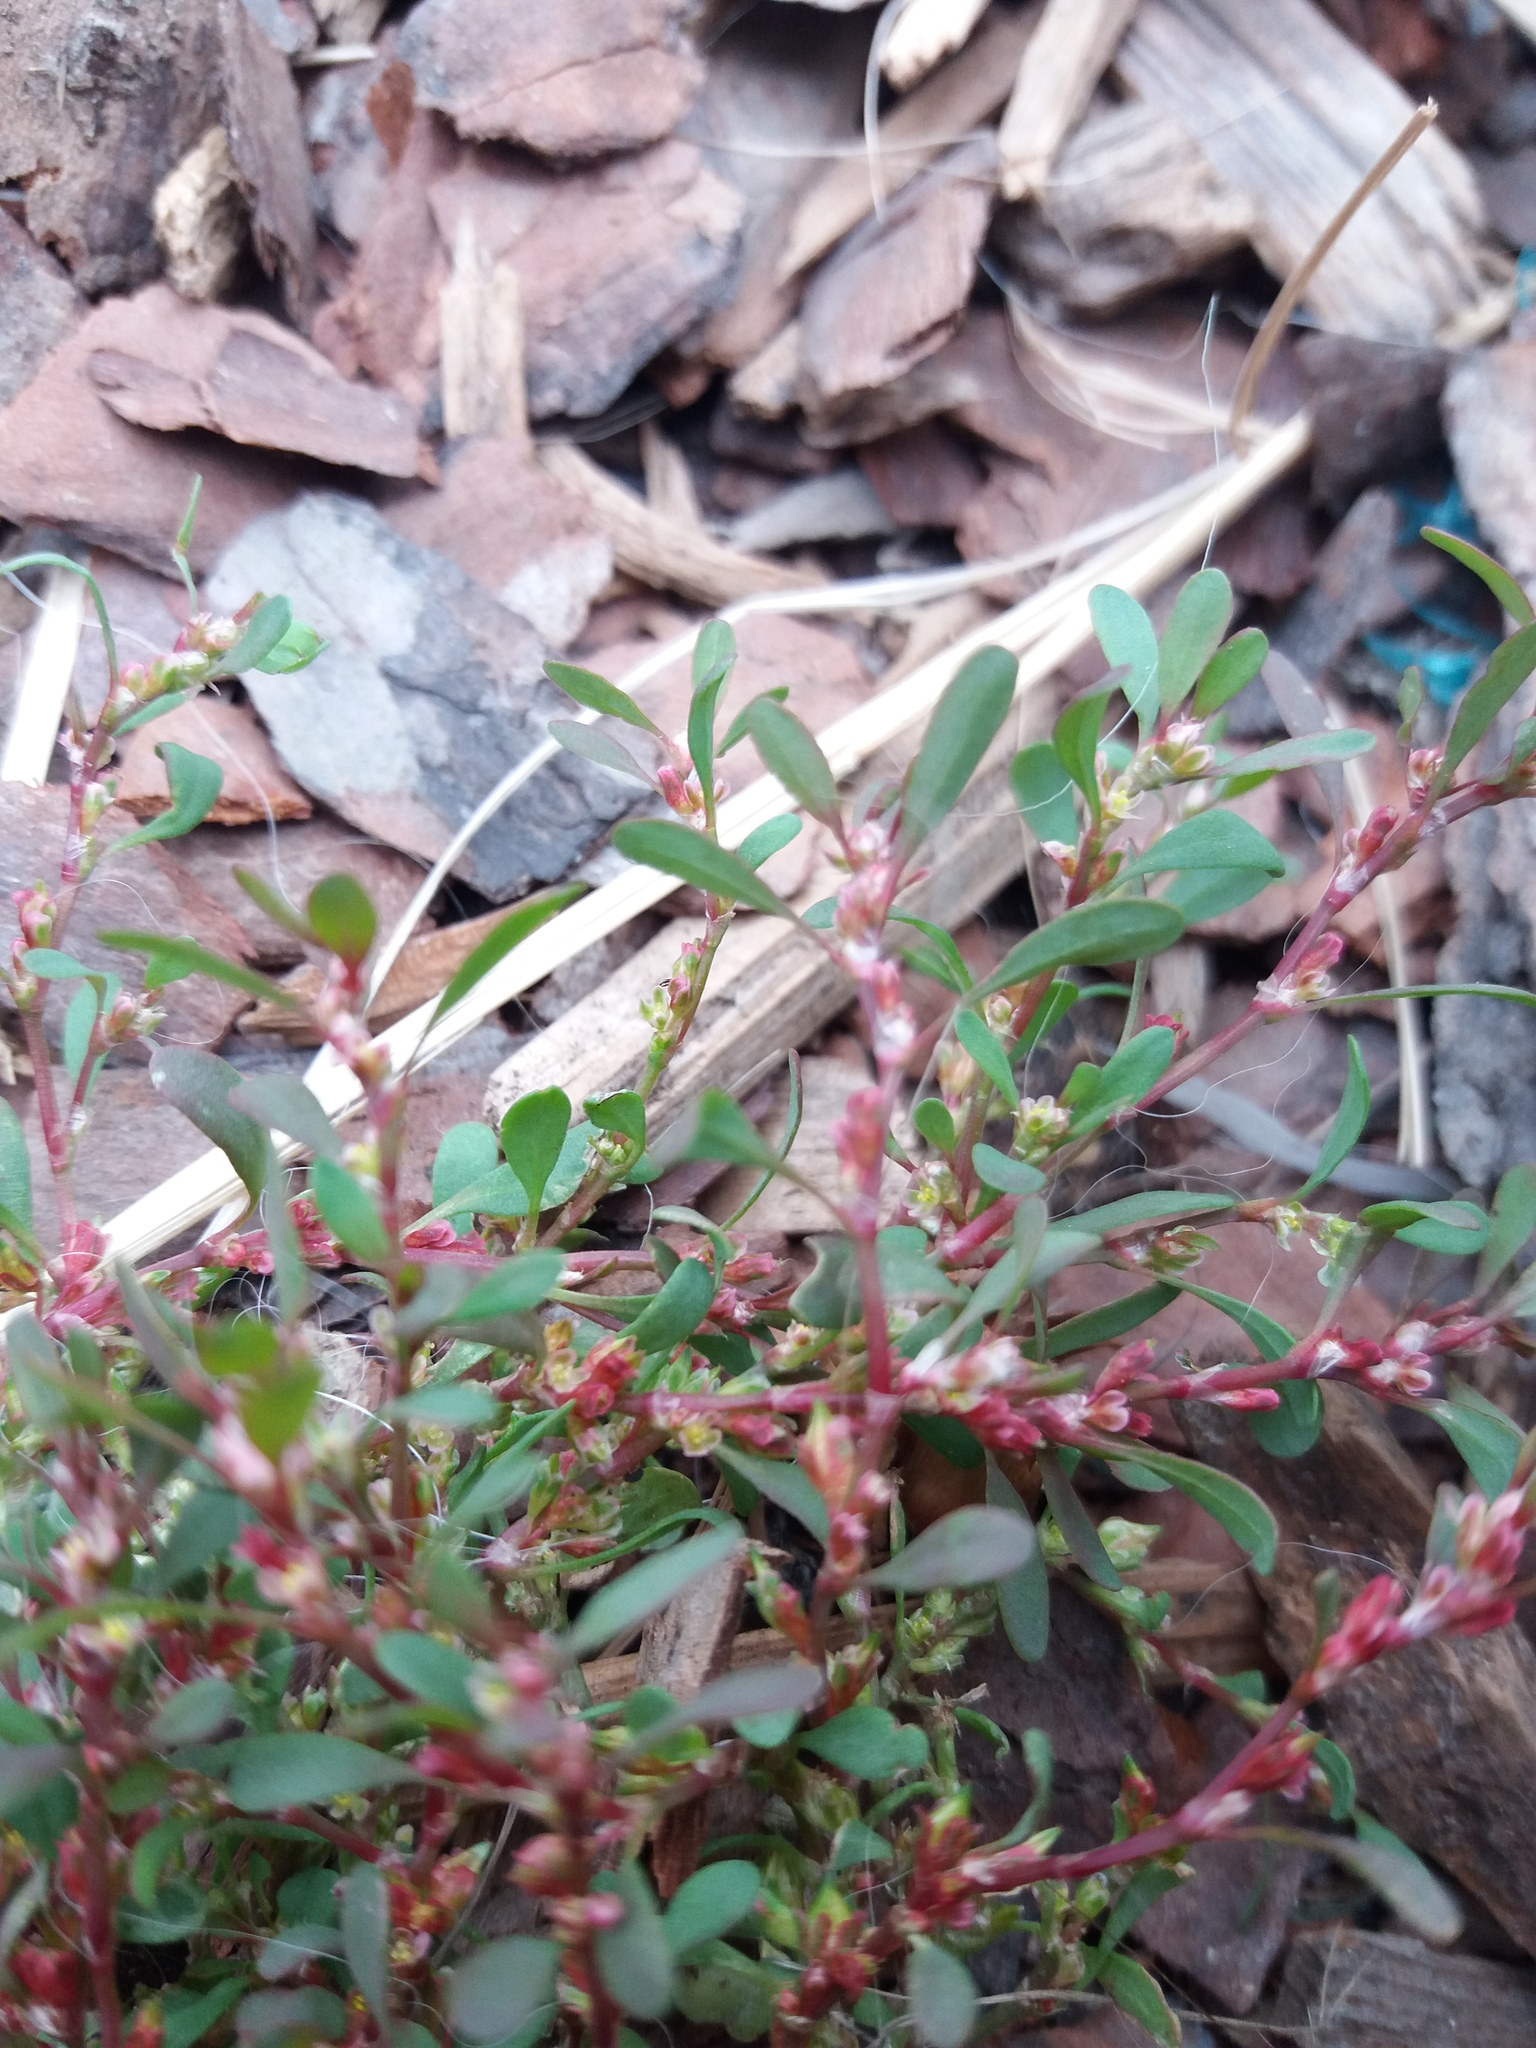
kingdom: Plantae
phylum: Tracheophyta
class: Magnoliopsida
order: Caryophyllales
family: Polygonaceae
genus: Polygonum
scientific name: Polygonum humifusum
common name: Alaska knotweed
